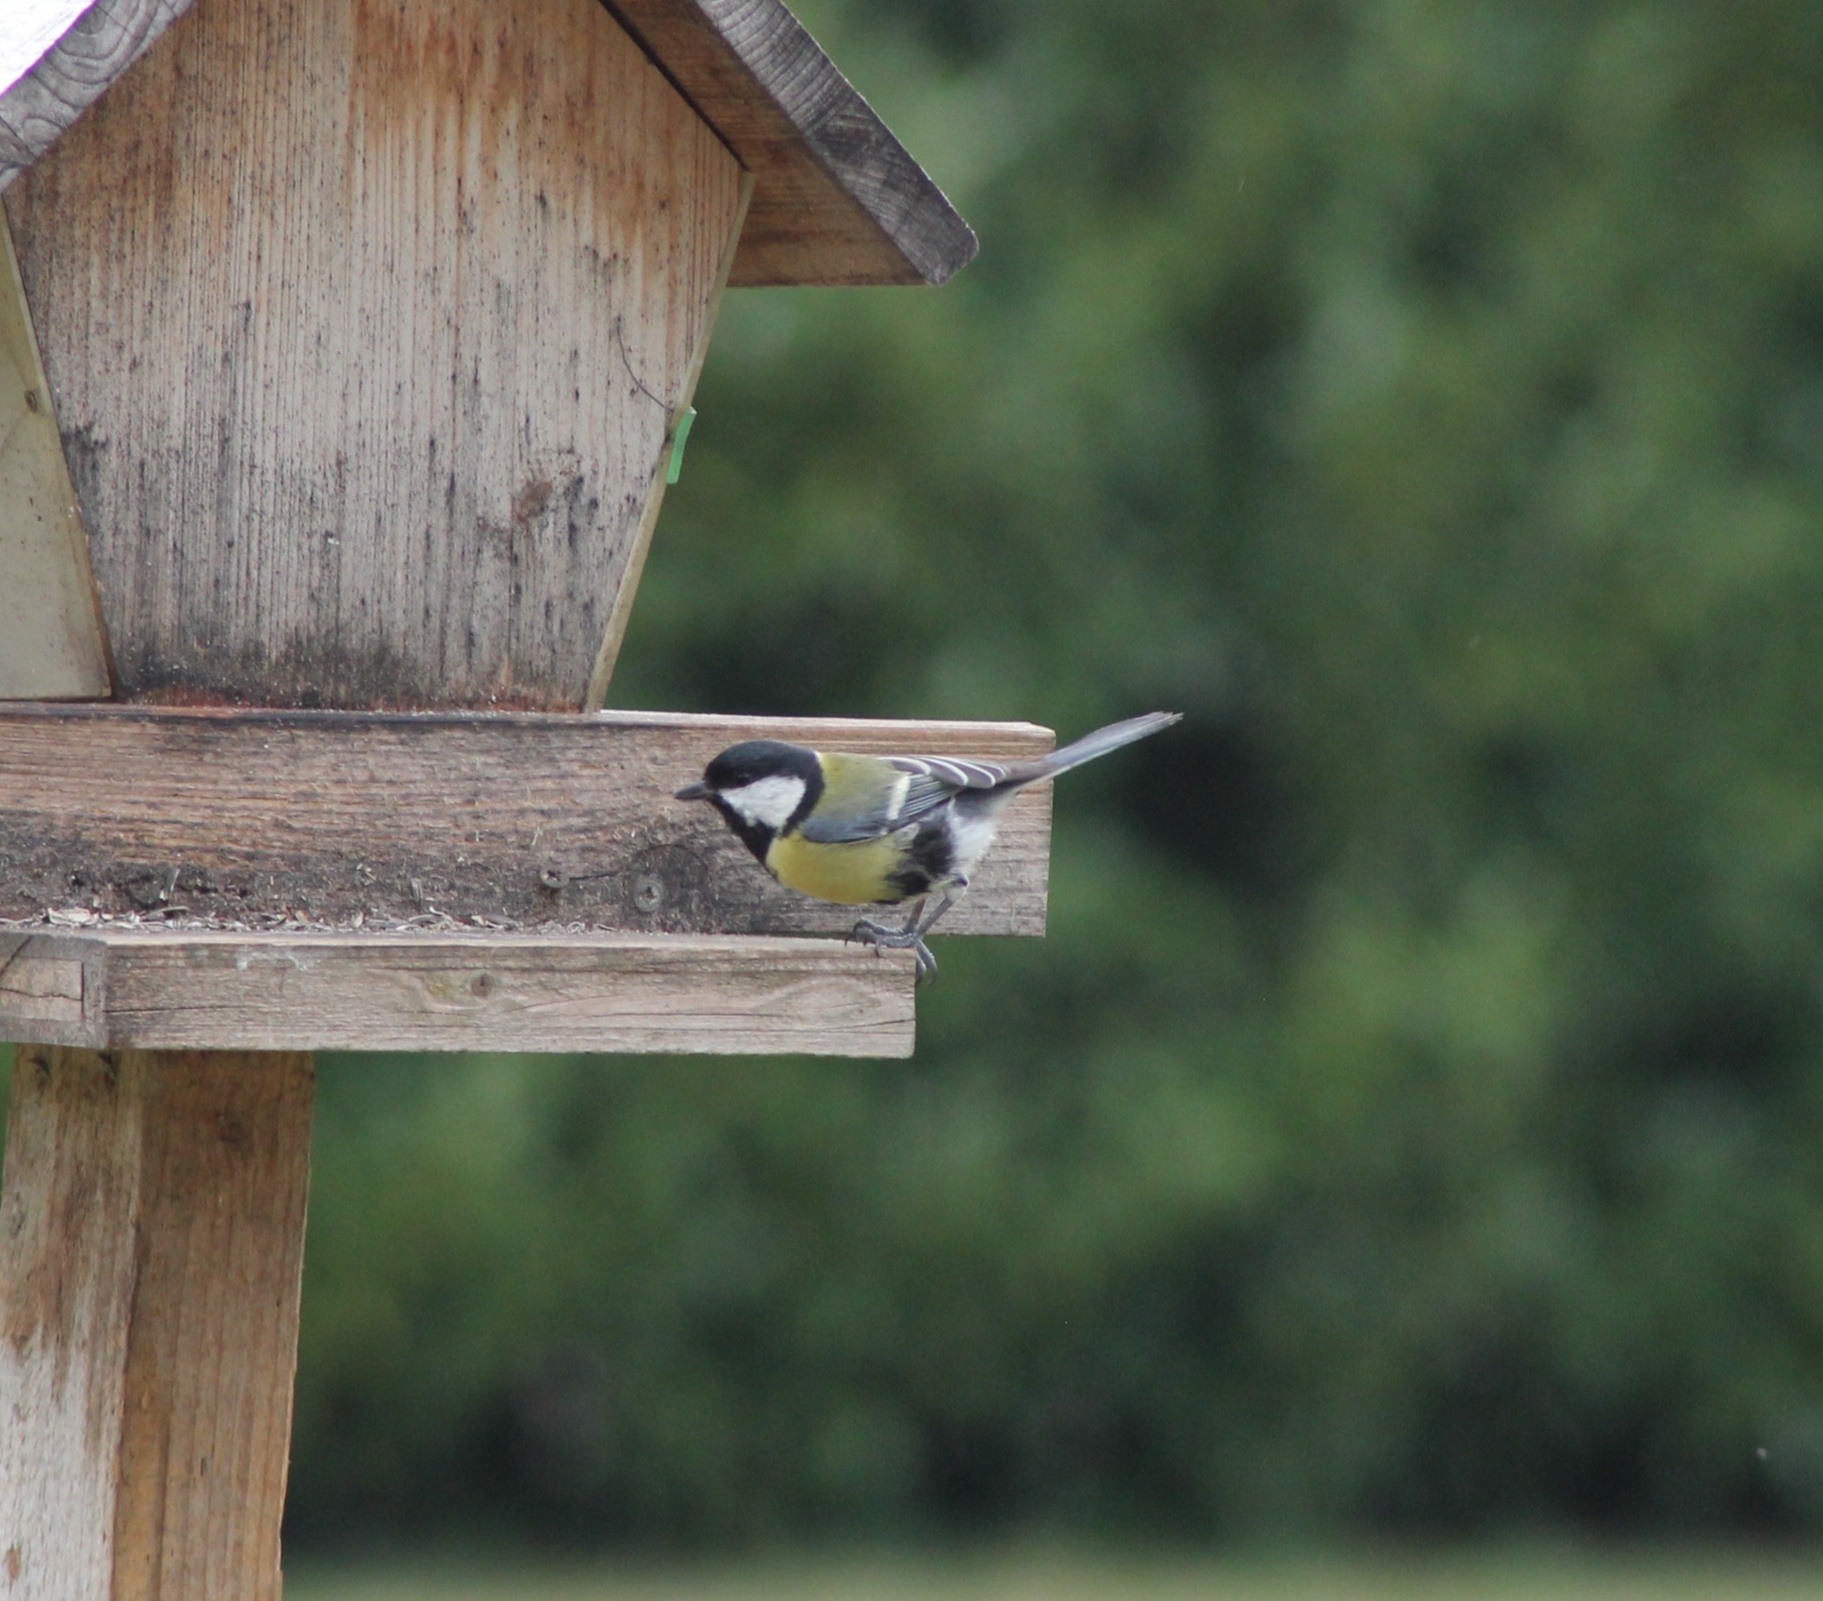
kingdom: Animalia
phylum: Chordata
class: Aves
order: Passeriformes
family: Paridae
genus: Parus
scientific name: Parus major
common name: Great tit
